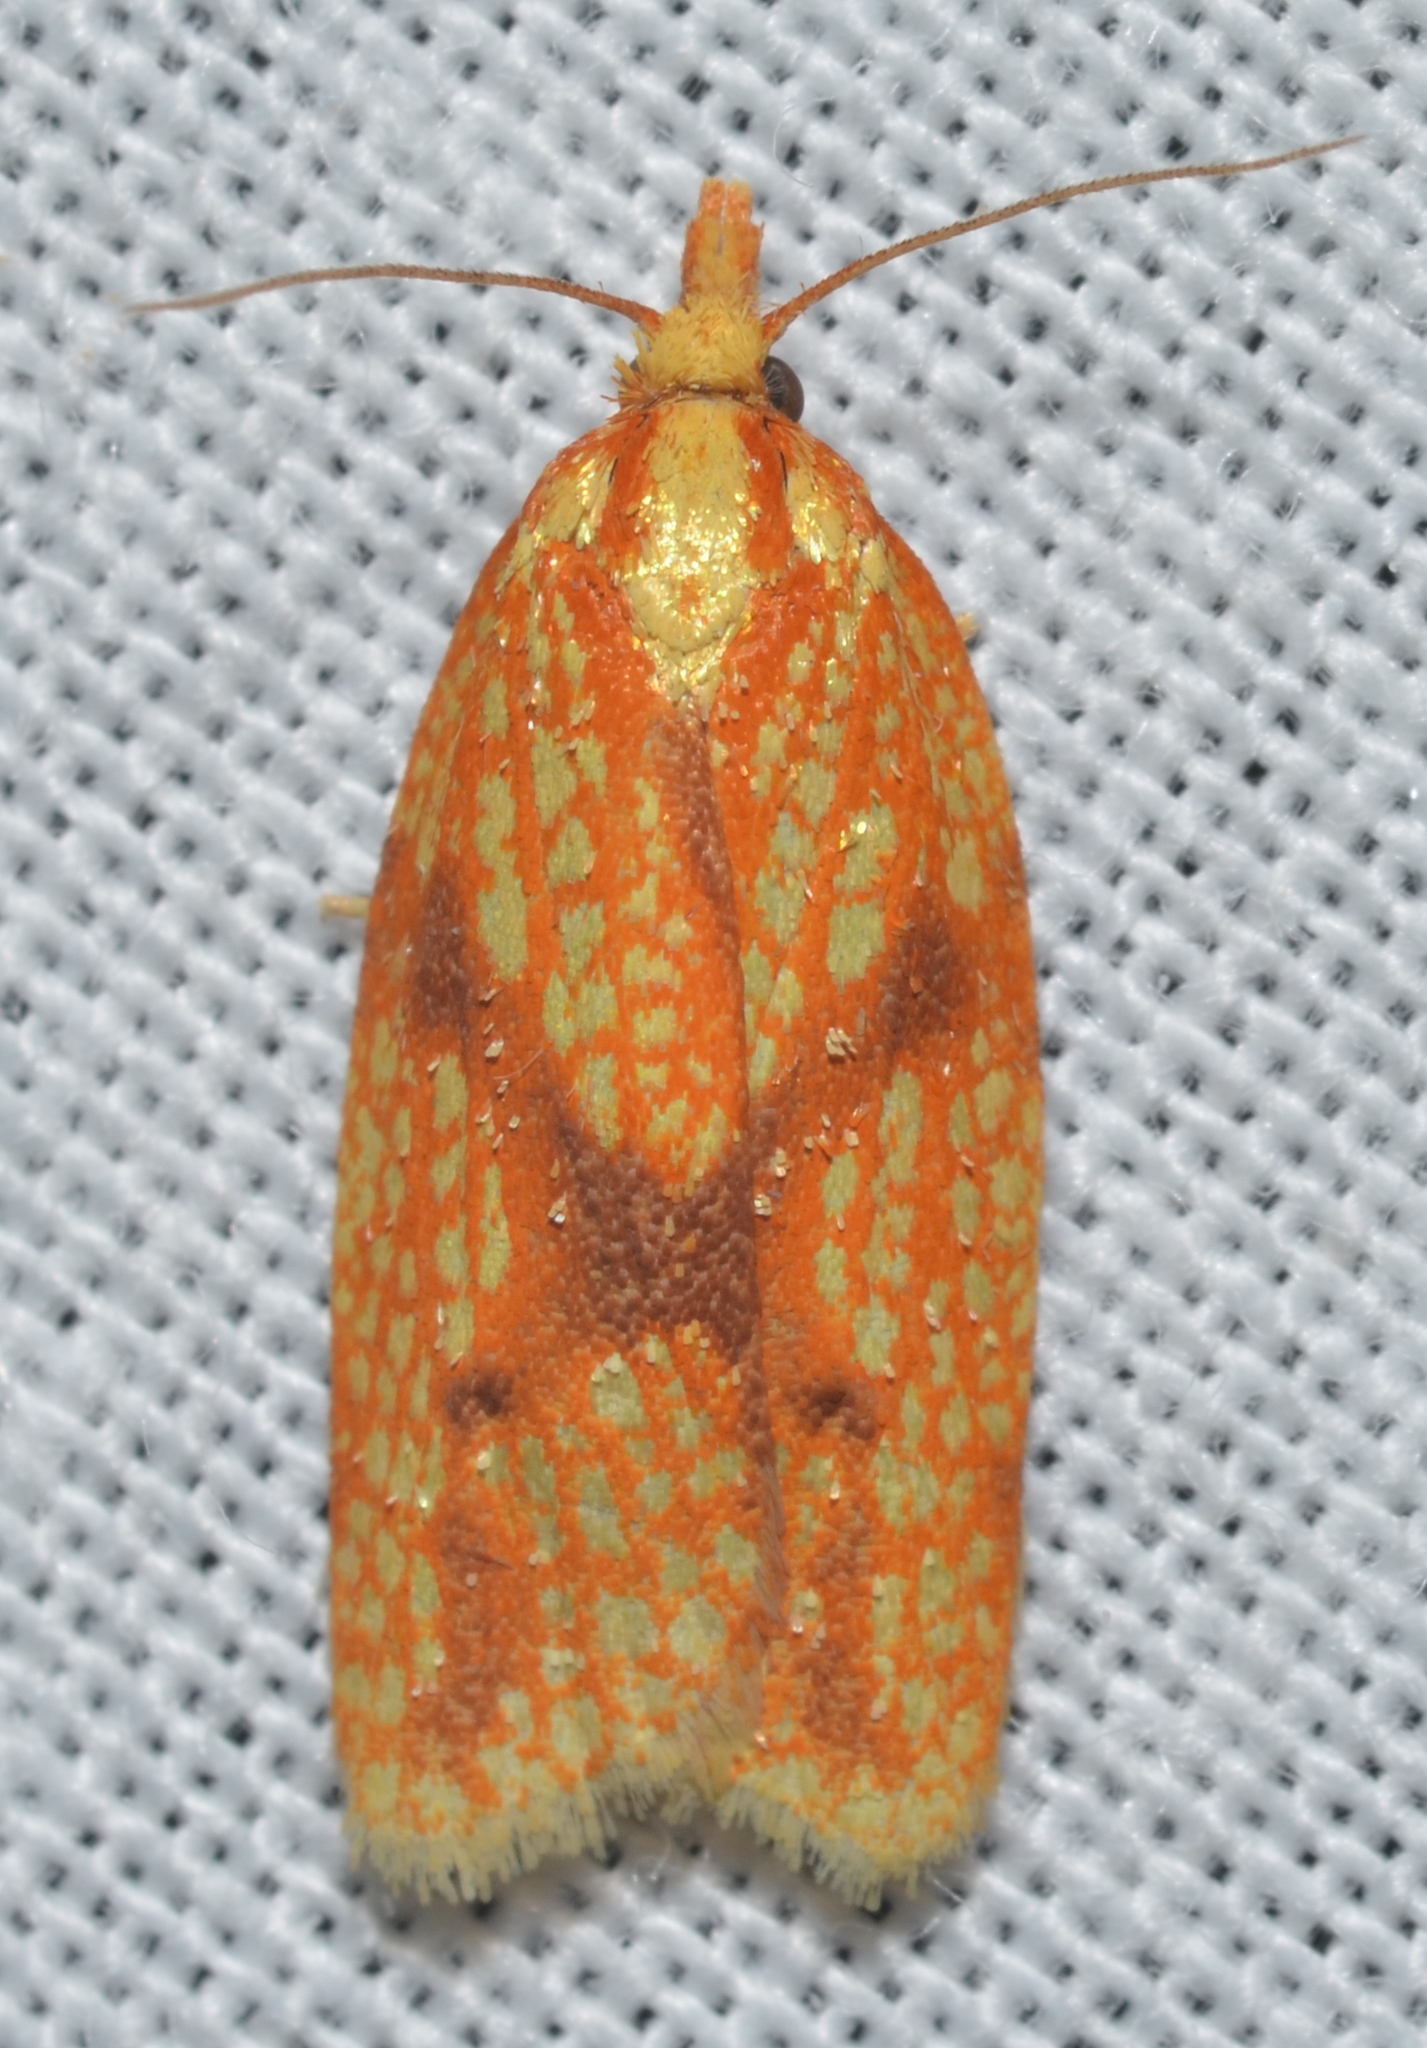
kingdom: Animalia
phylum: Arthropoda
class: Insecta
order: Lepidoptera
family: Tortricidae
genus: Sparganothis
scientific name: Sparganothis sulfureana
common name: Sparganothis fruitworm moth
